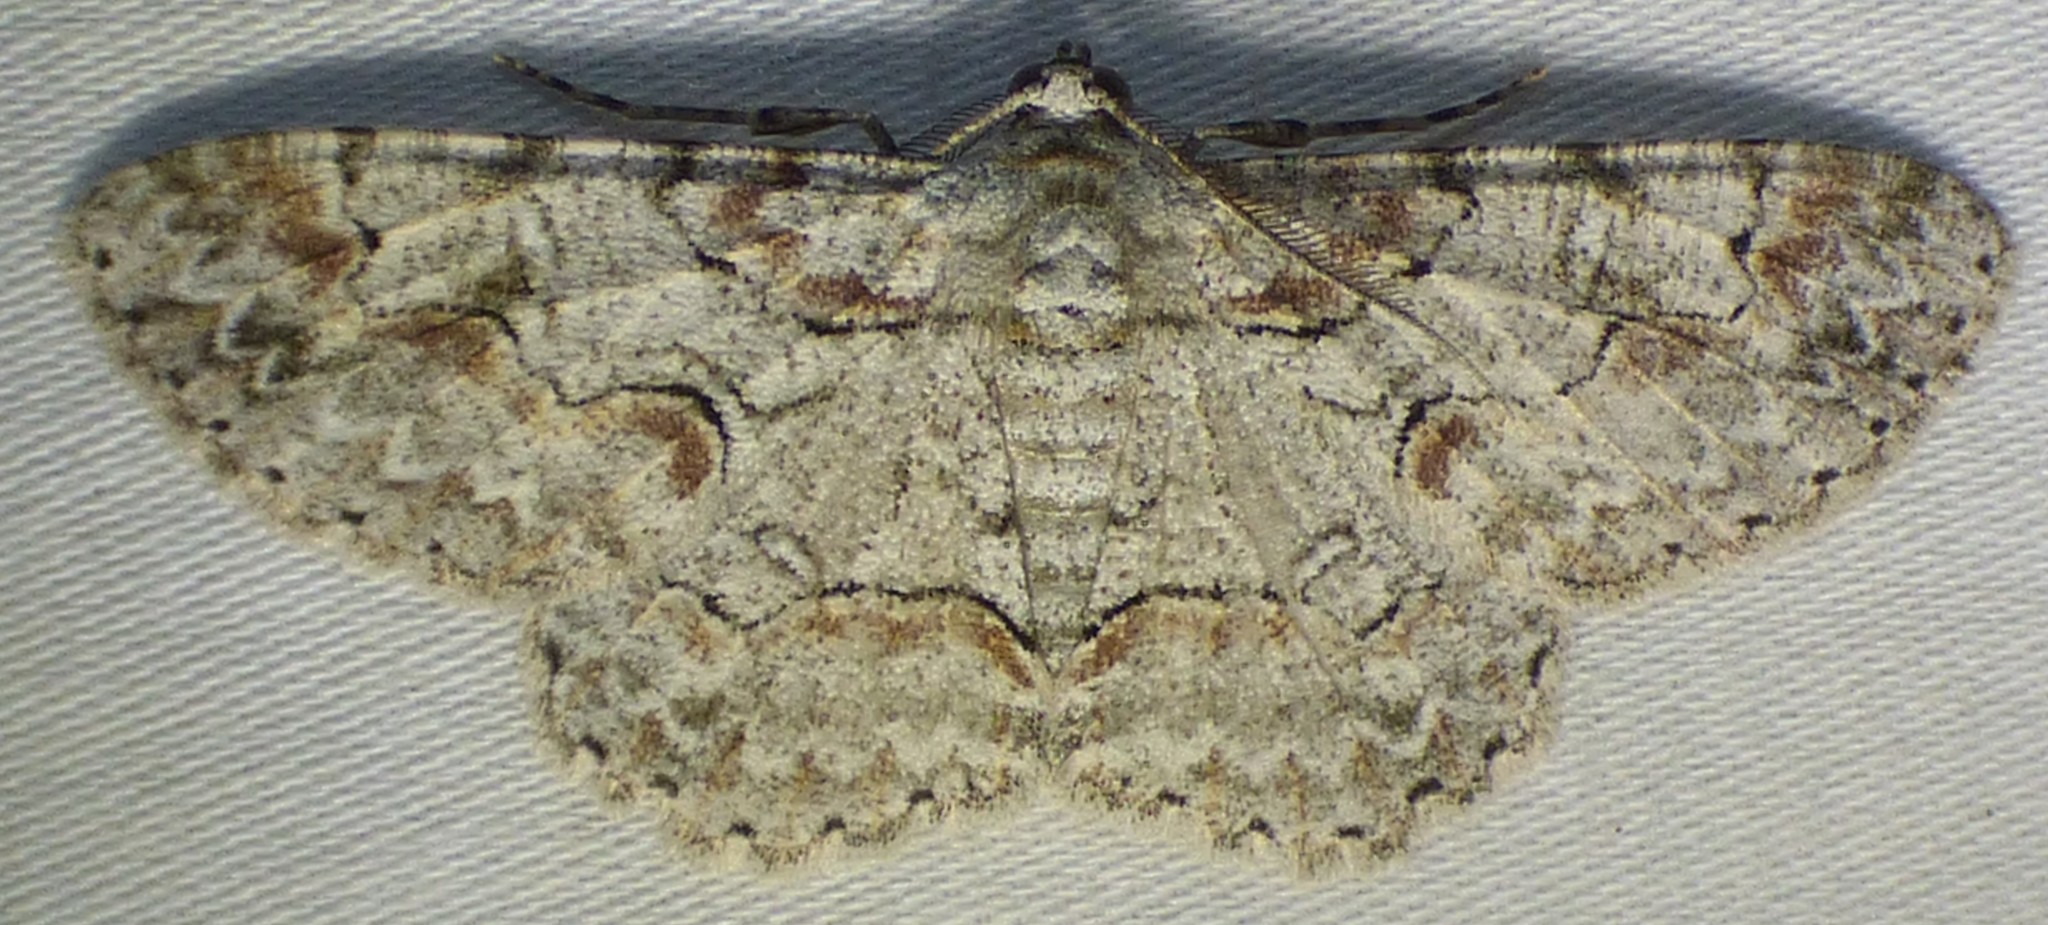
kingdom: Animalia
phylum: Arthropoda
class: Insecta
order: Lepidoptera
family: Geometridae
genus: Iridopsis
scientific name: Iridopsis defectaria
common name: Brown-shaded gray
